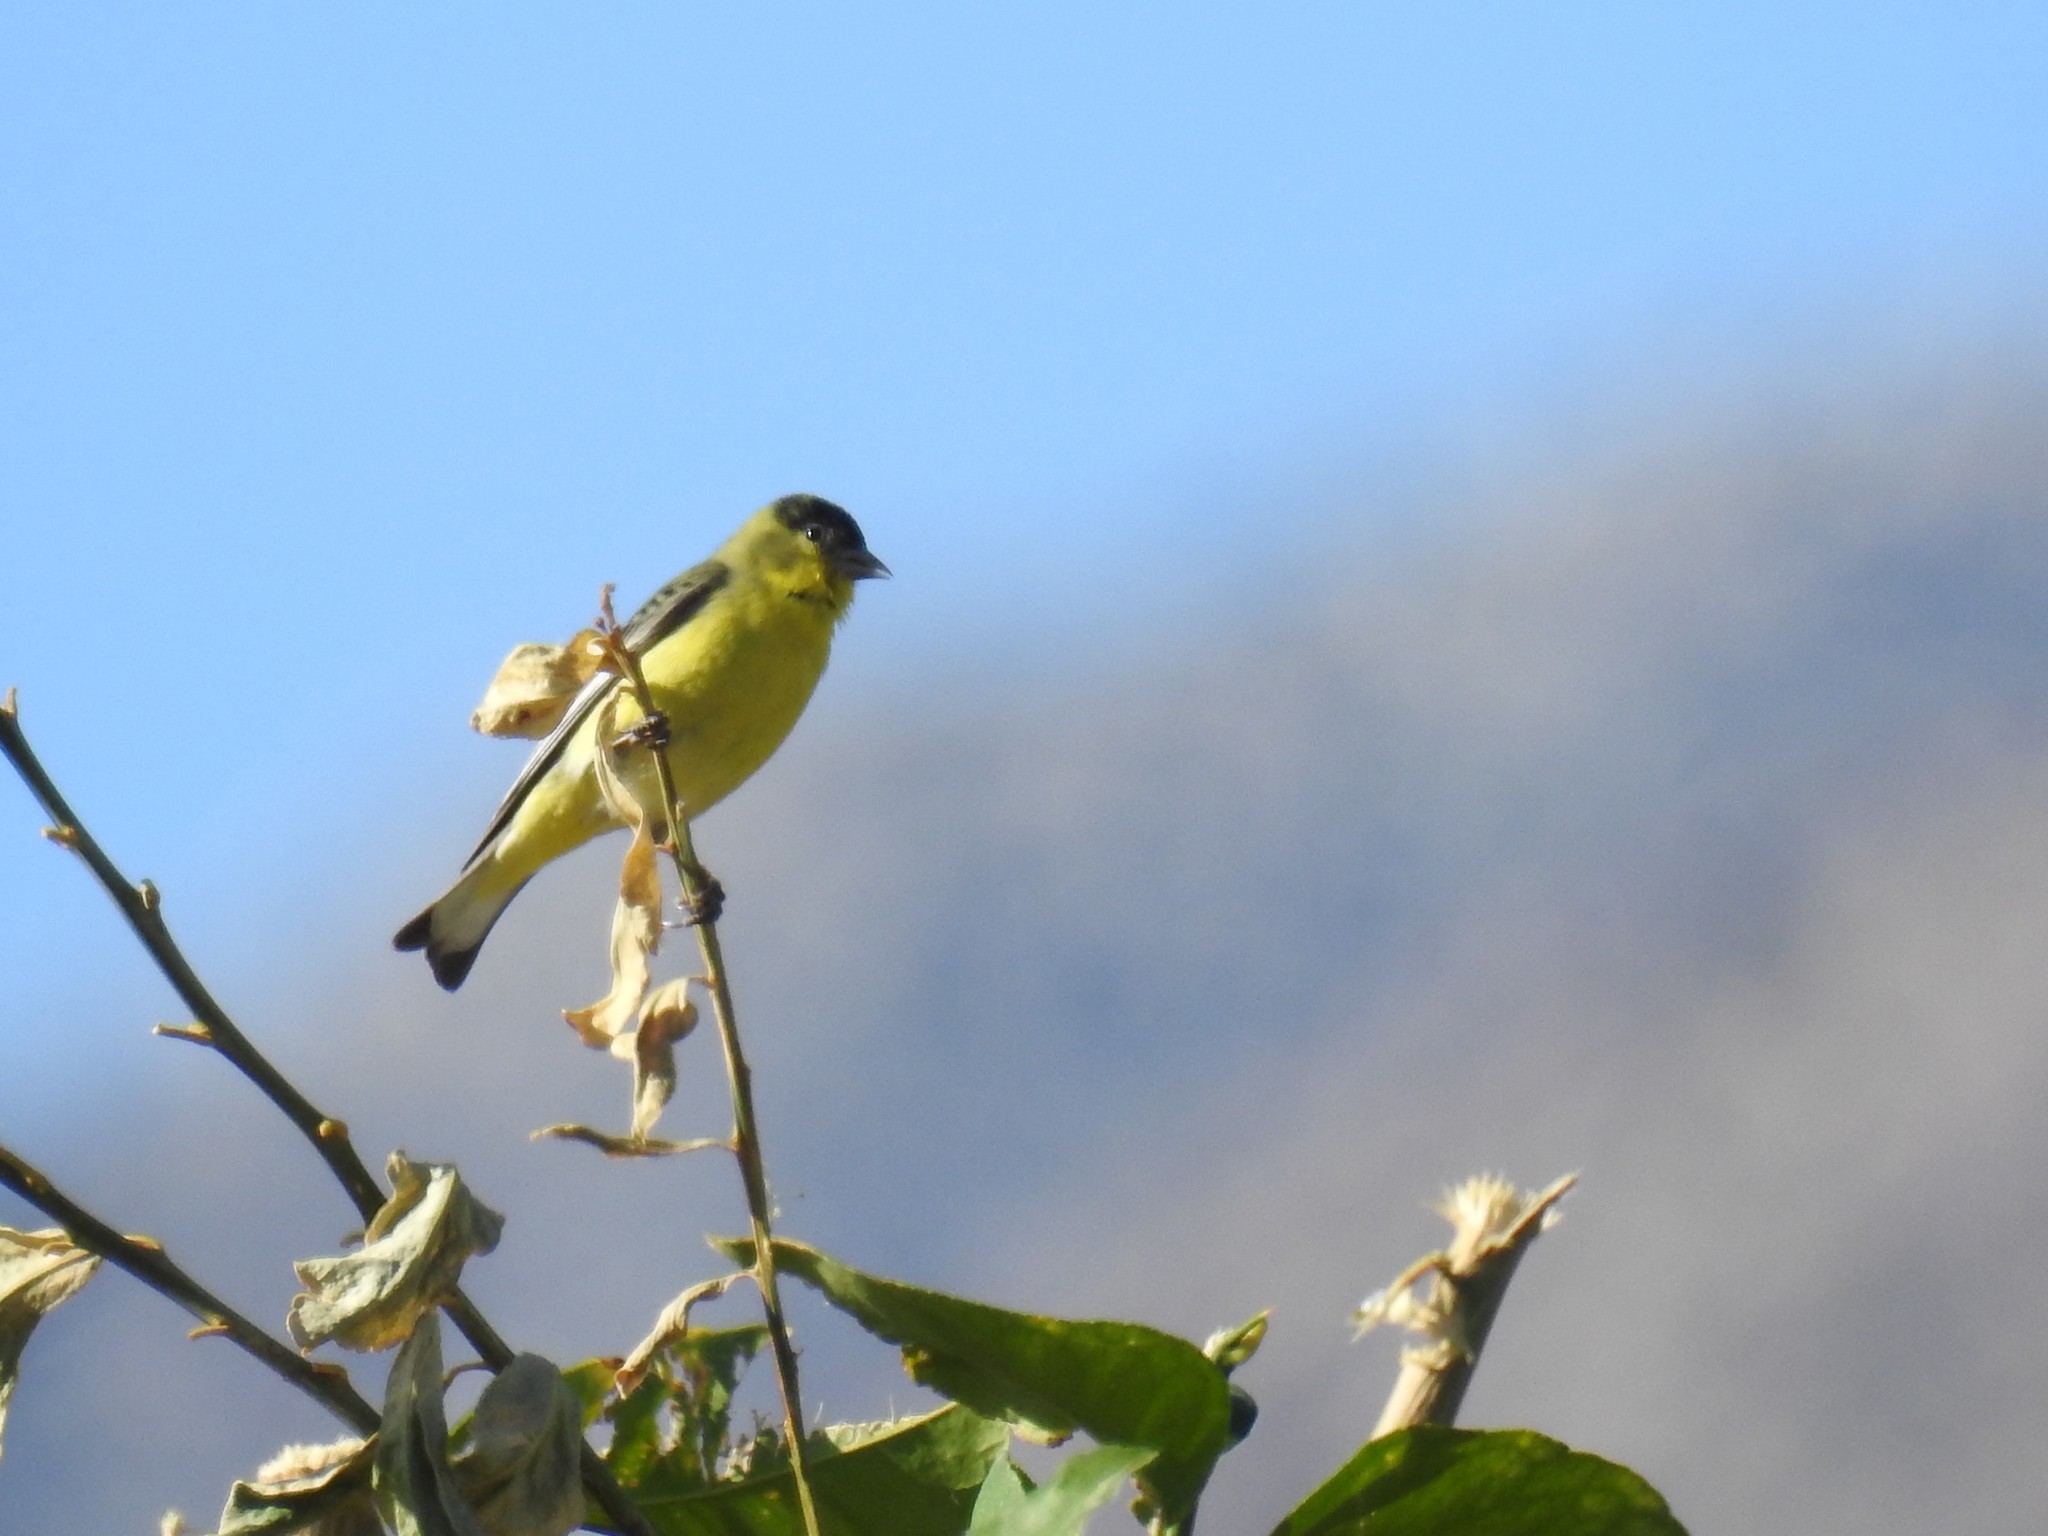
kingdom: Animalia
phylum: Chordata
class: Aves
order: Passeriformes
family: Fringillidae
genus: Spinus
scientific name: Spinus psaltria
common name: Lesser goldfinch
